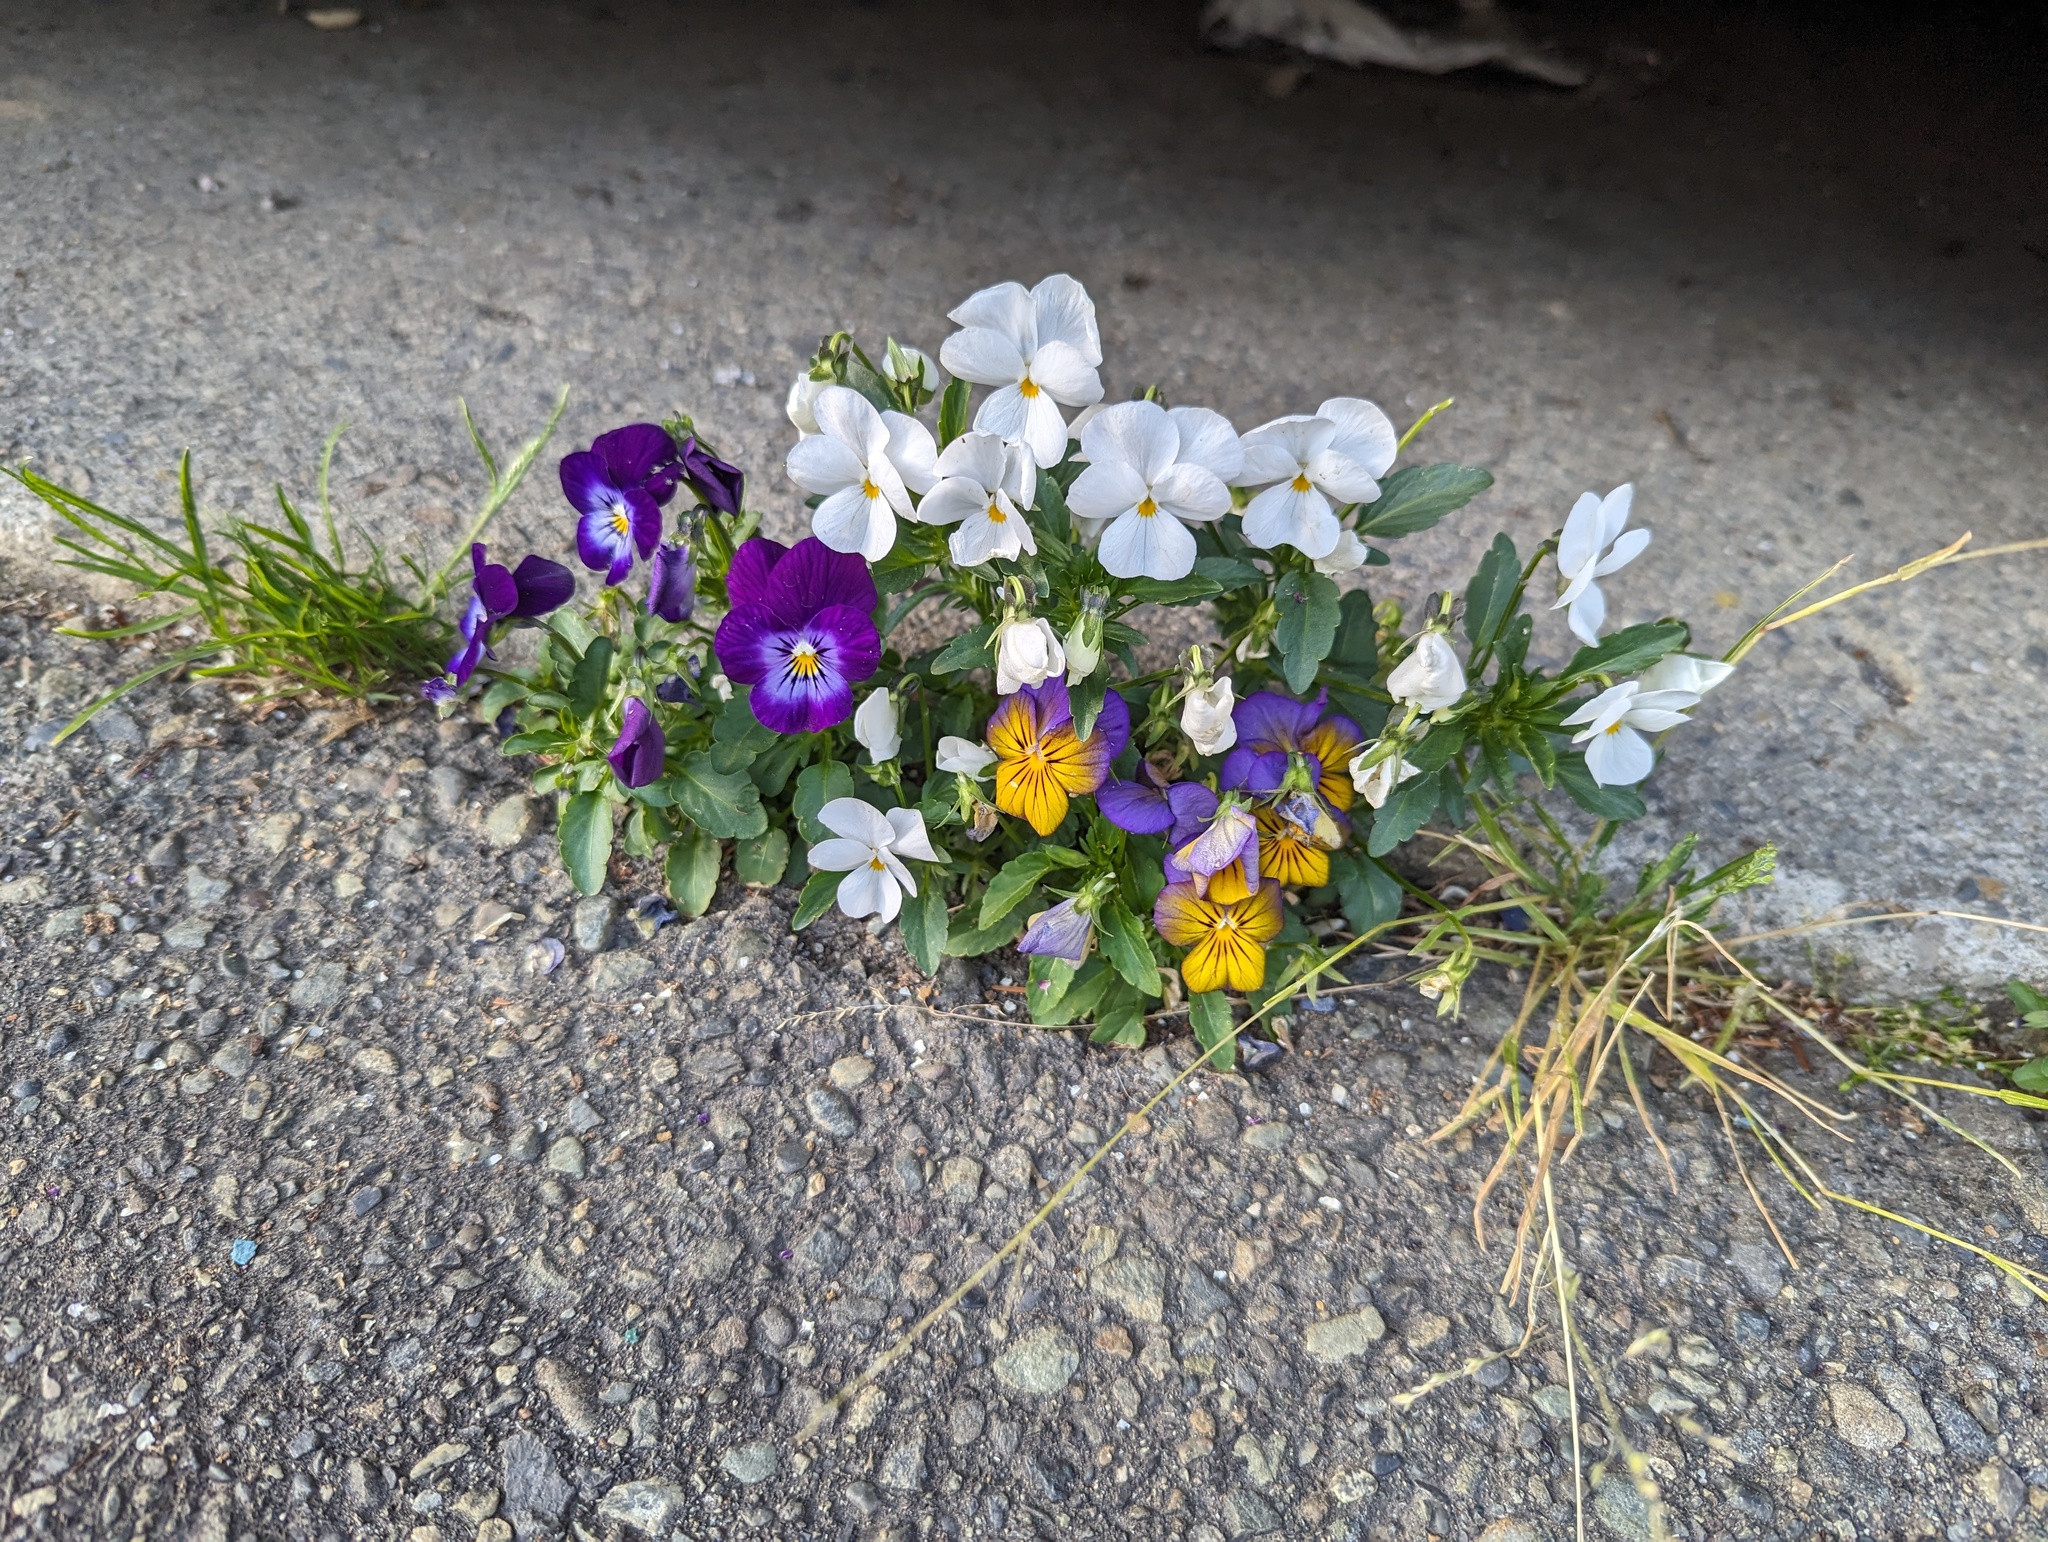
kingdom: Plantae
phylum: Tracheophyta
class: Magnoliopsida
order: Malpighiales
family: Violaceae
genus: Viola
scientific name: Viola williamsii
